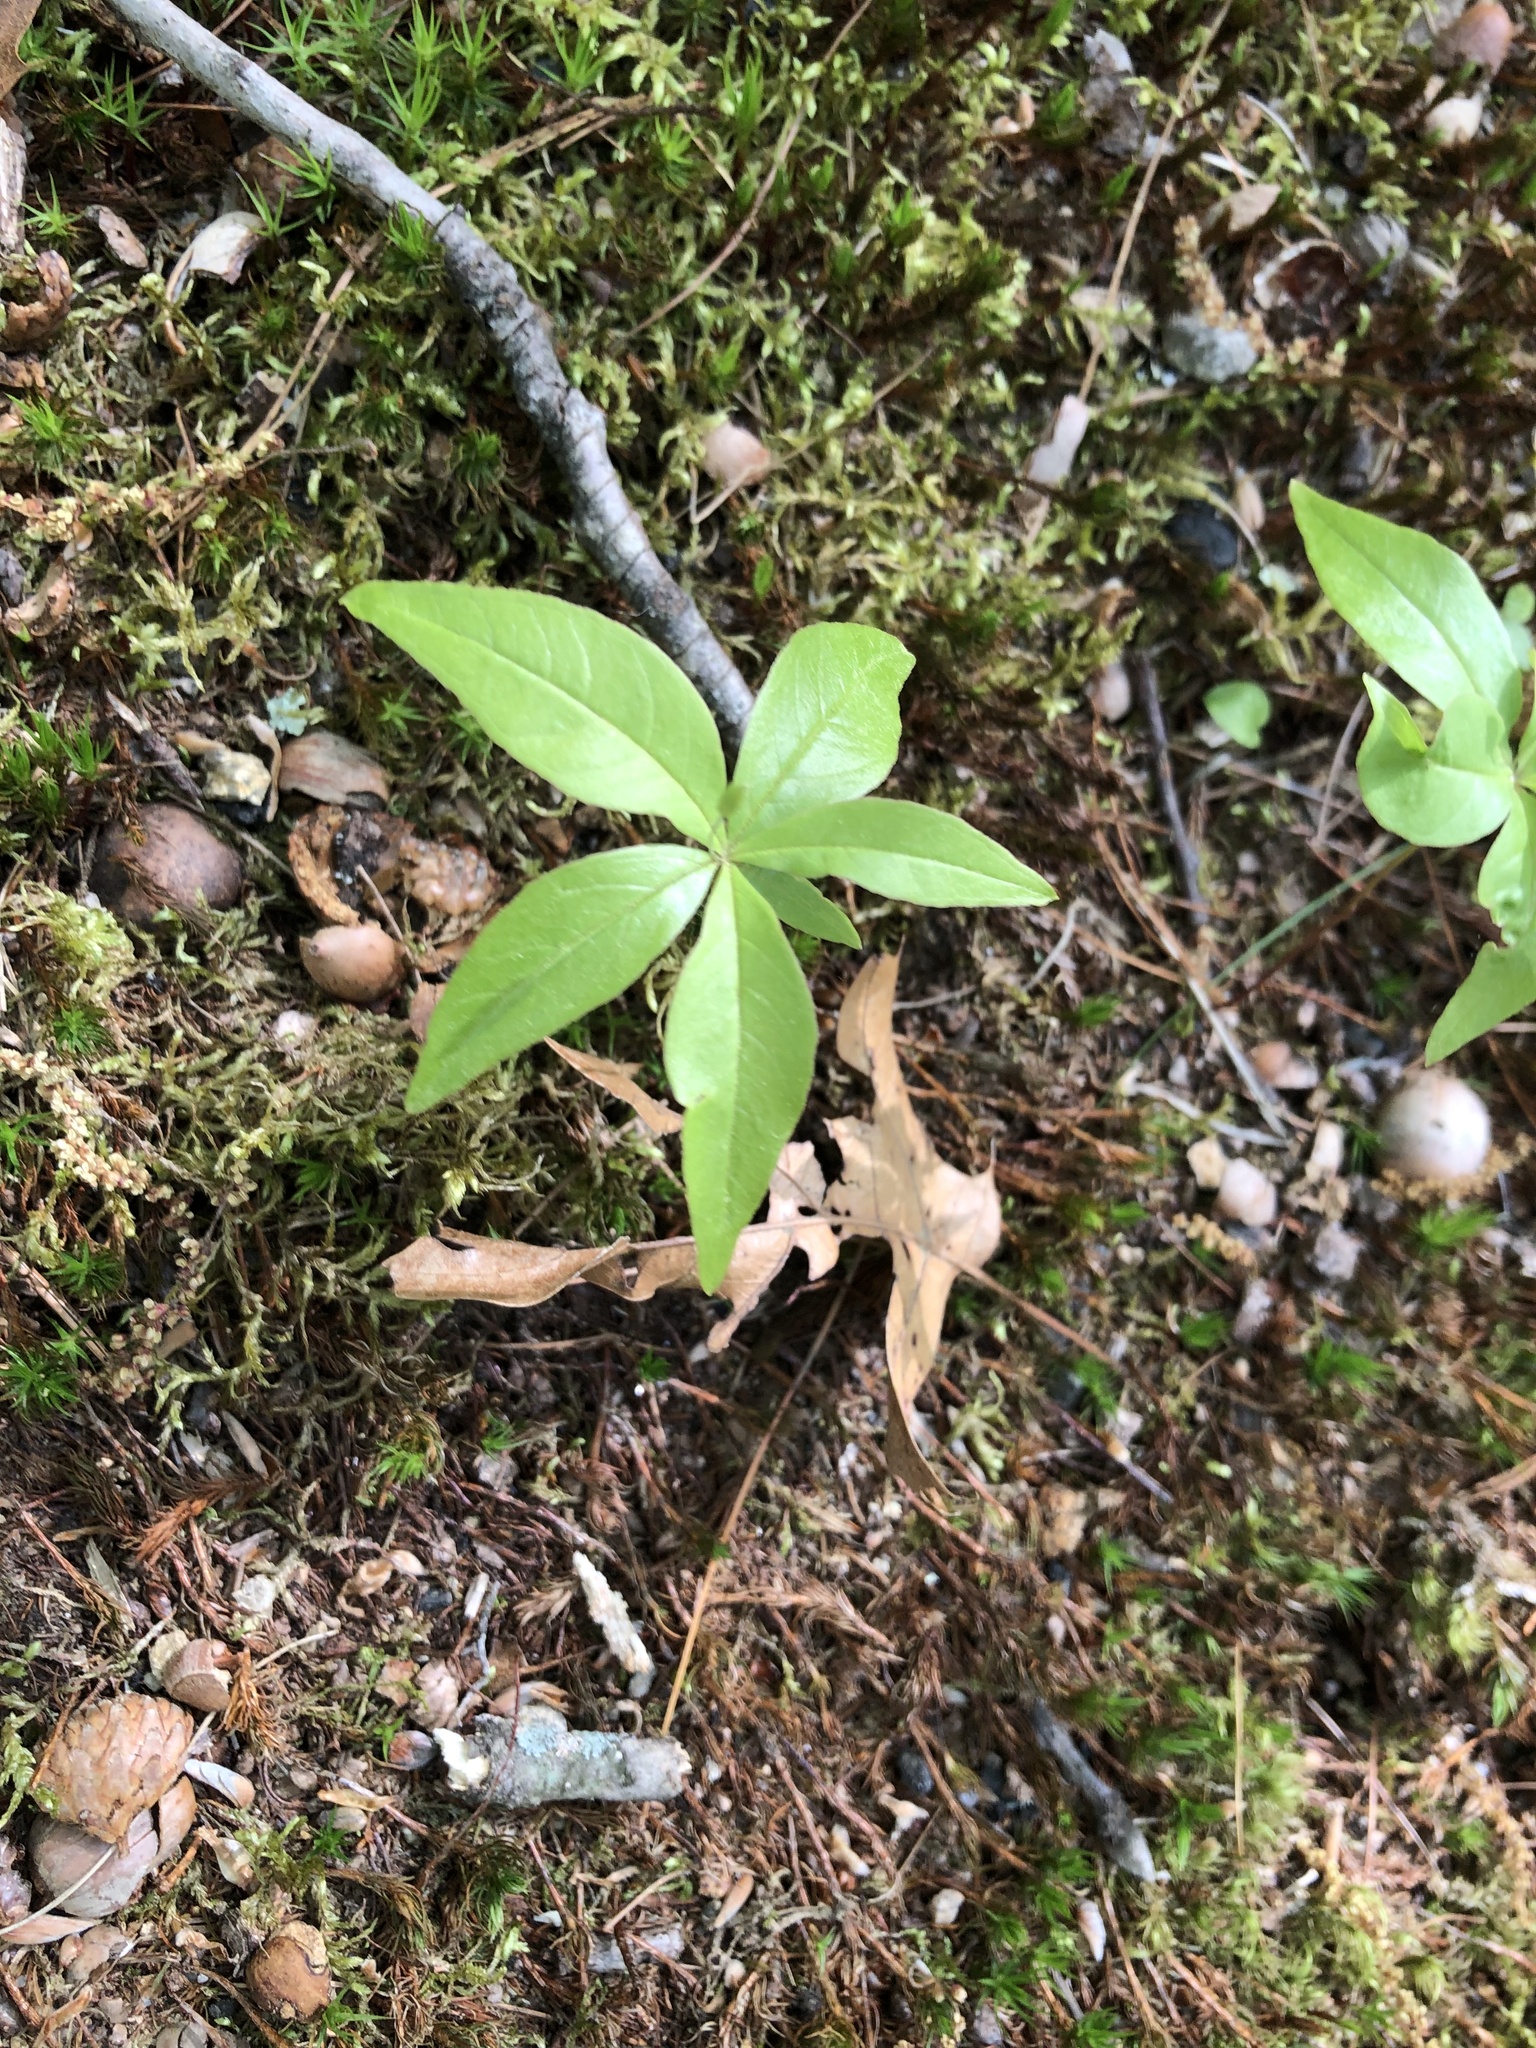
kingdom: Plantae
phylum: Tracheophyta
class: Magnoliopsida
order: Ericales
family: Primulaceae
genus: Lysimachia
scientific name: Lysimachia borealis
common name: American starflower
